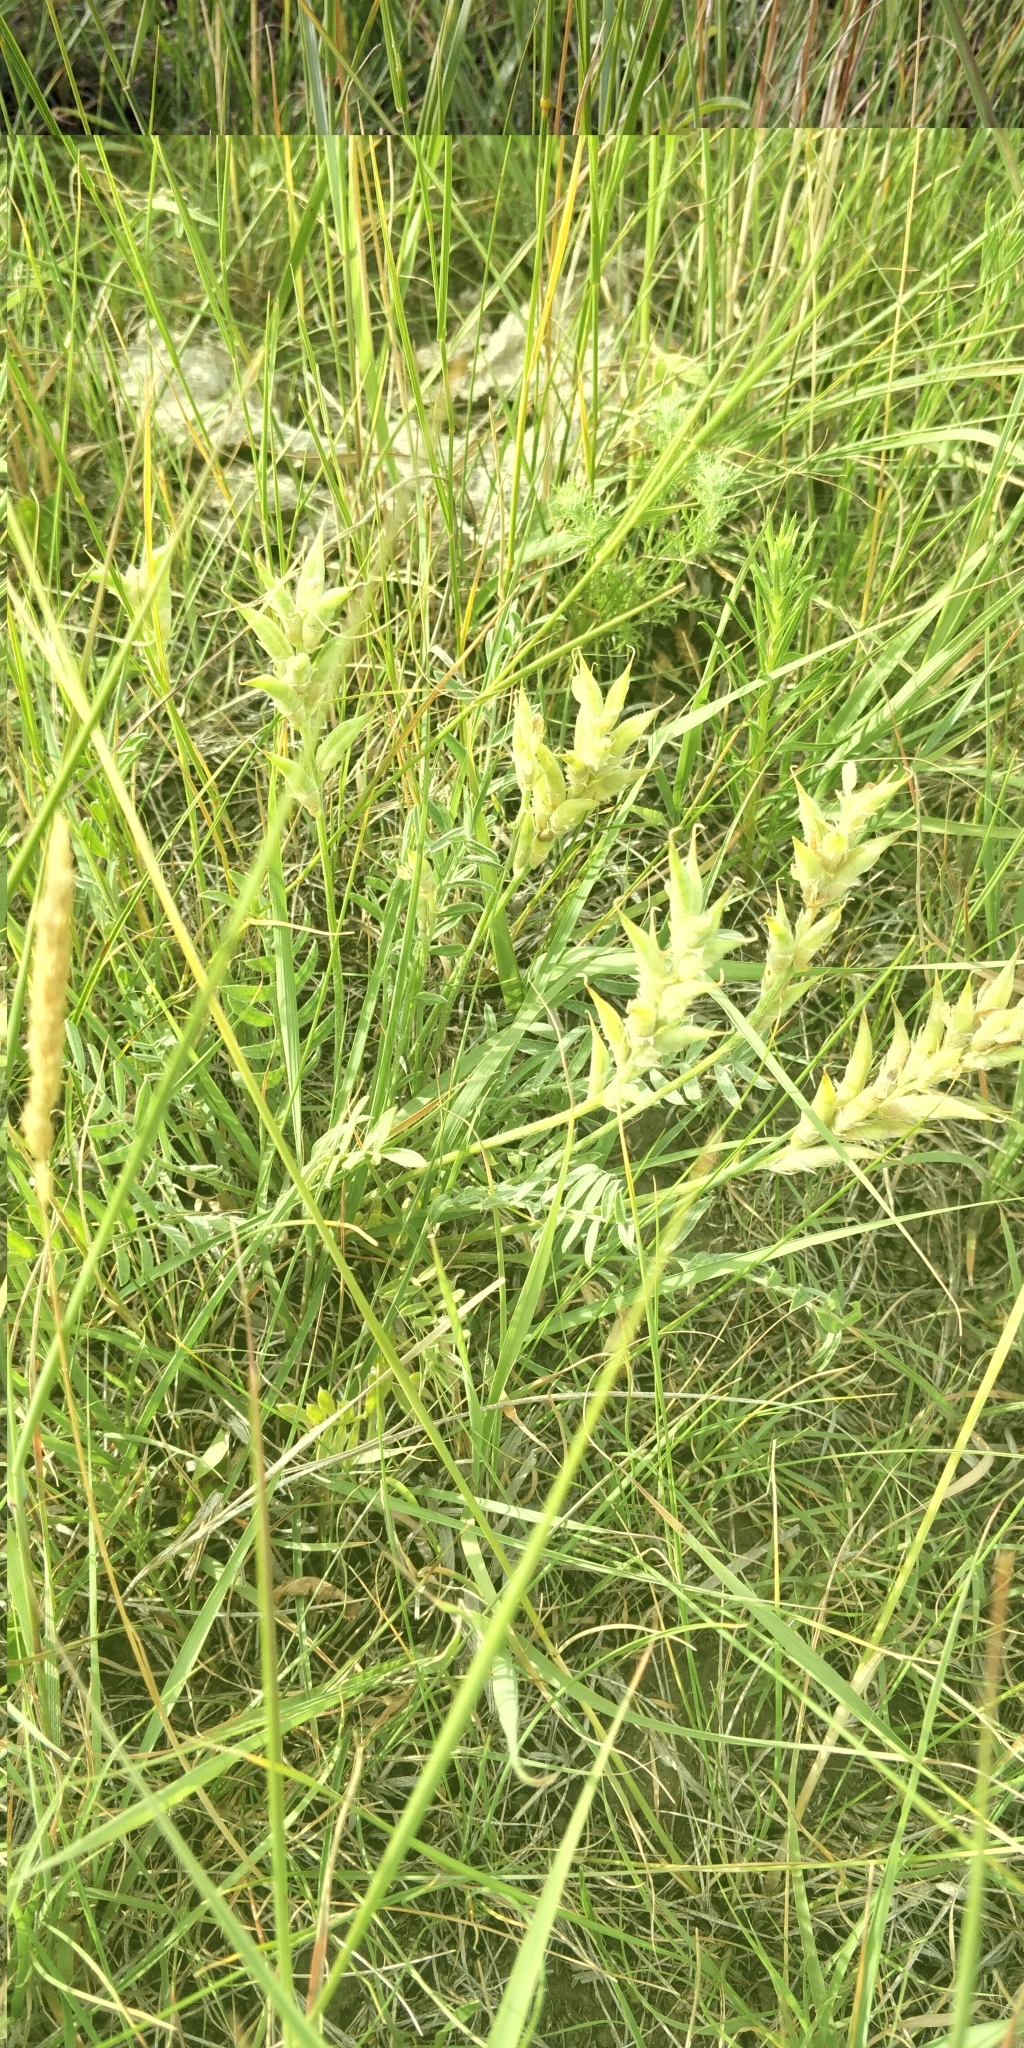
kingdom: Plantae
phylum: Tracheophyta
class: Magnoliopsida
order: Fabales
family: Fabaceae
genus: Oxytropis
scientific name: Oxytropis lambertii
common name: Purple locoweed
